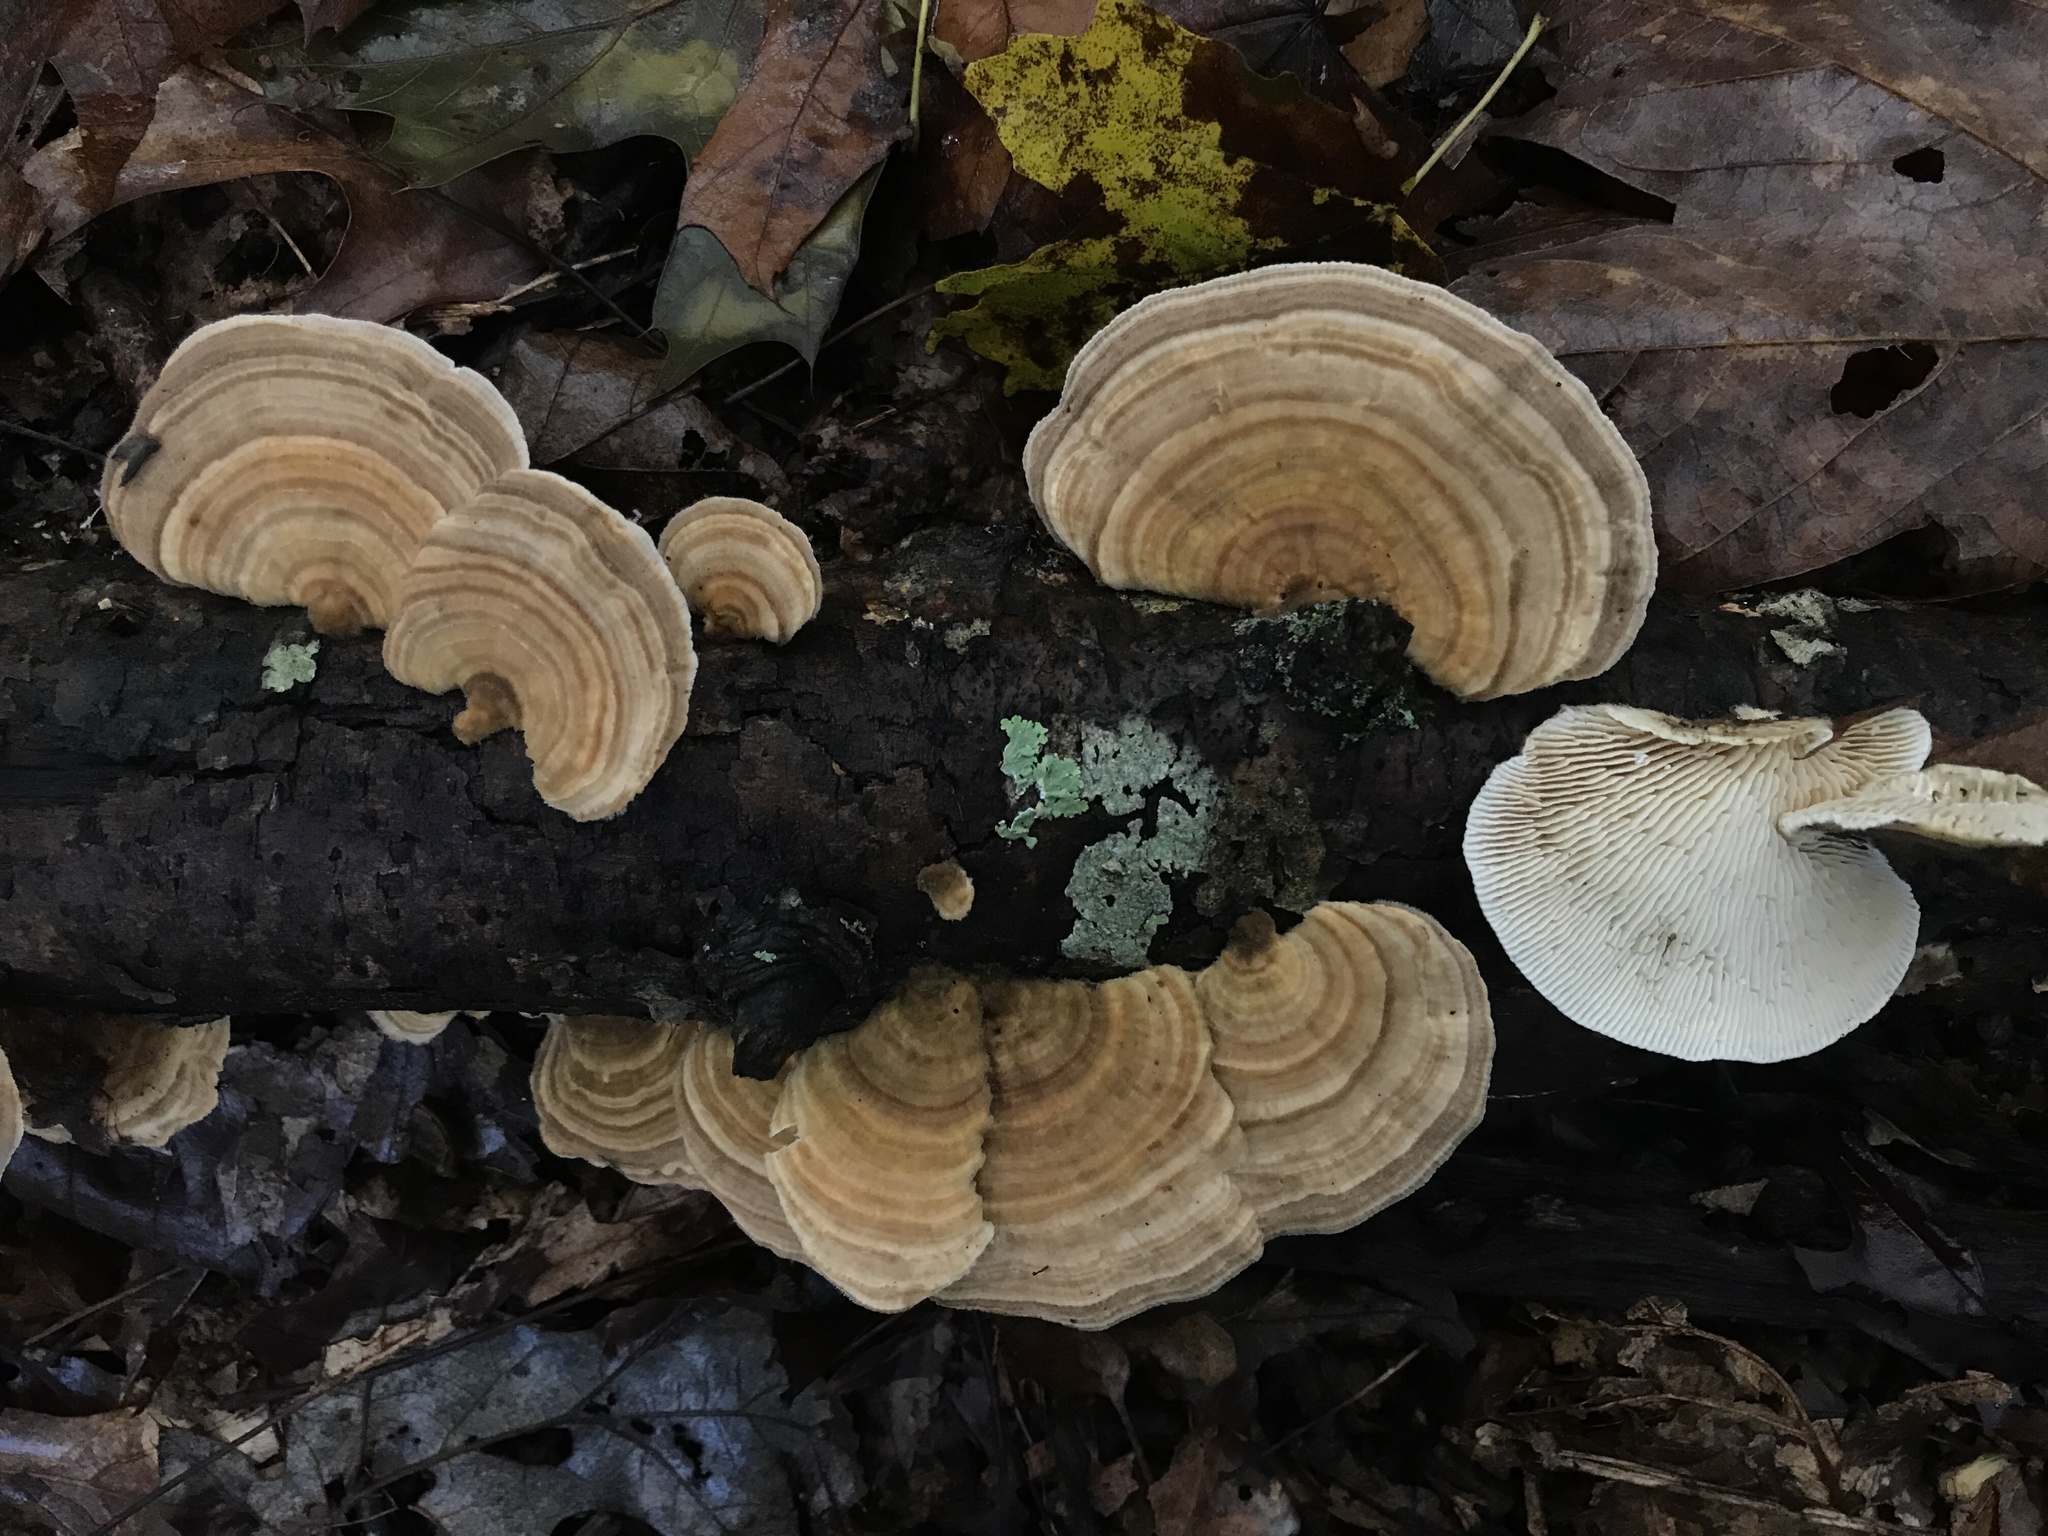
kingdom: Fungi
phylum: Basidiomycota
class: Agaricomycetes
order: Polyporales
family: Polyporaceae
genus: Lenzites
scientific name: Lenzites betulinus
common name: Birch mazegill
